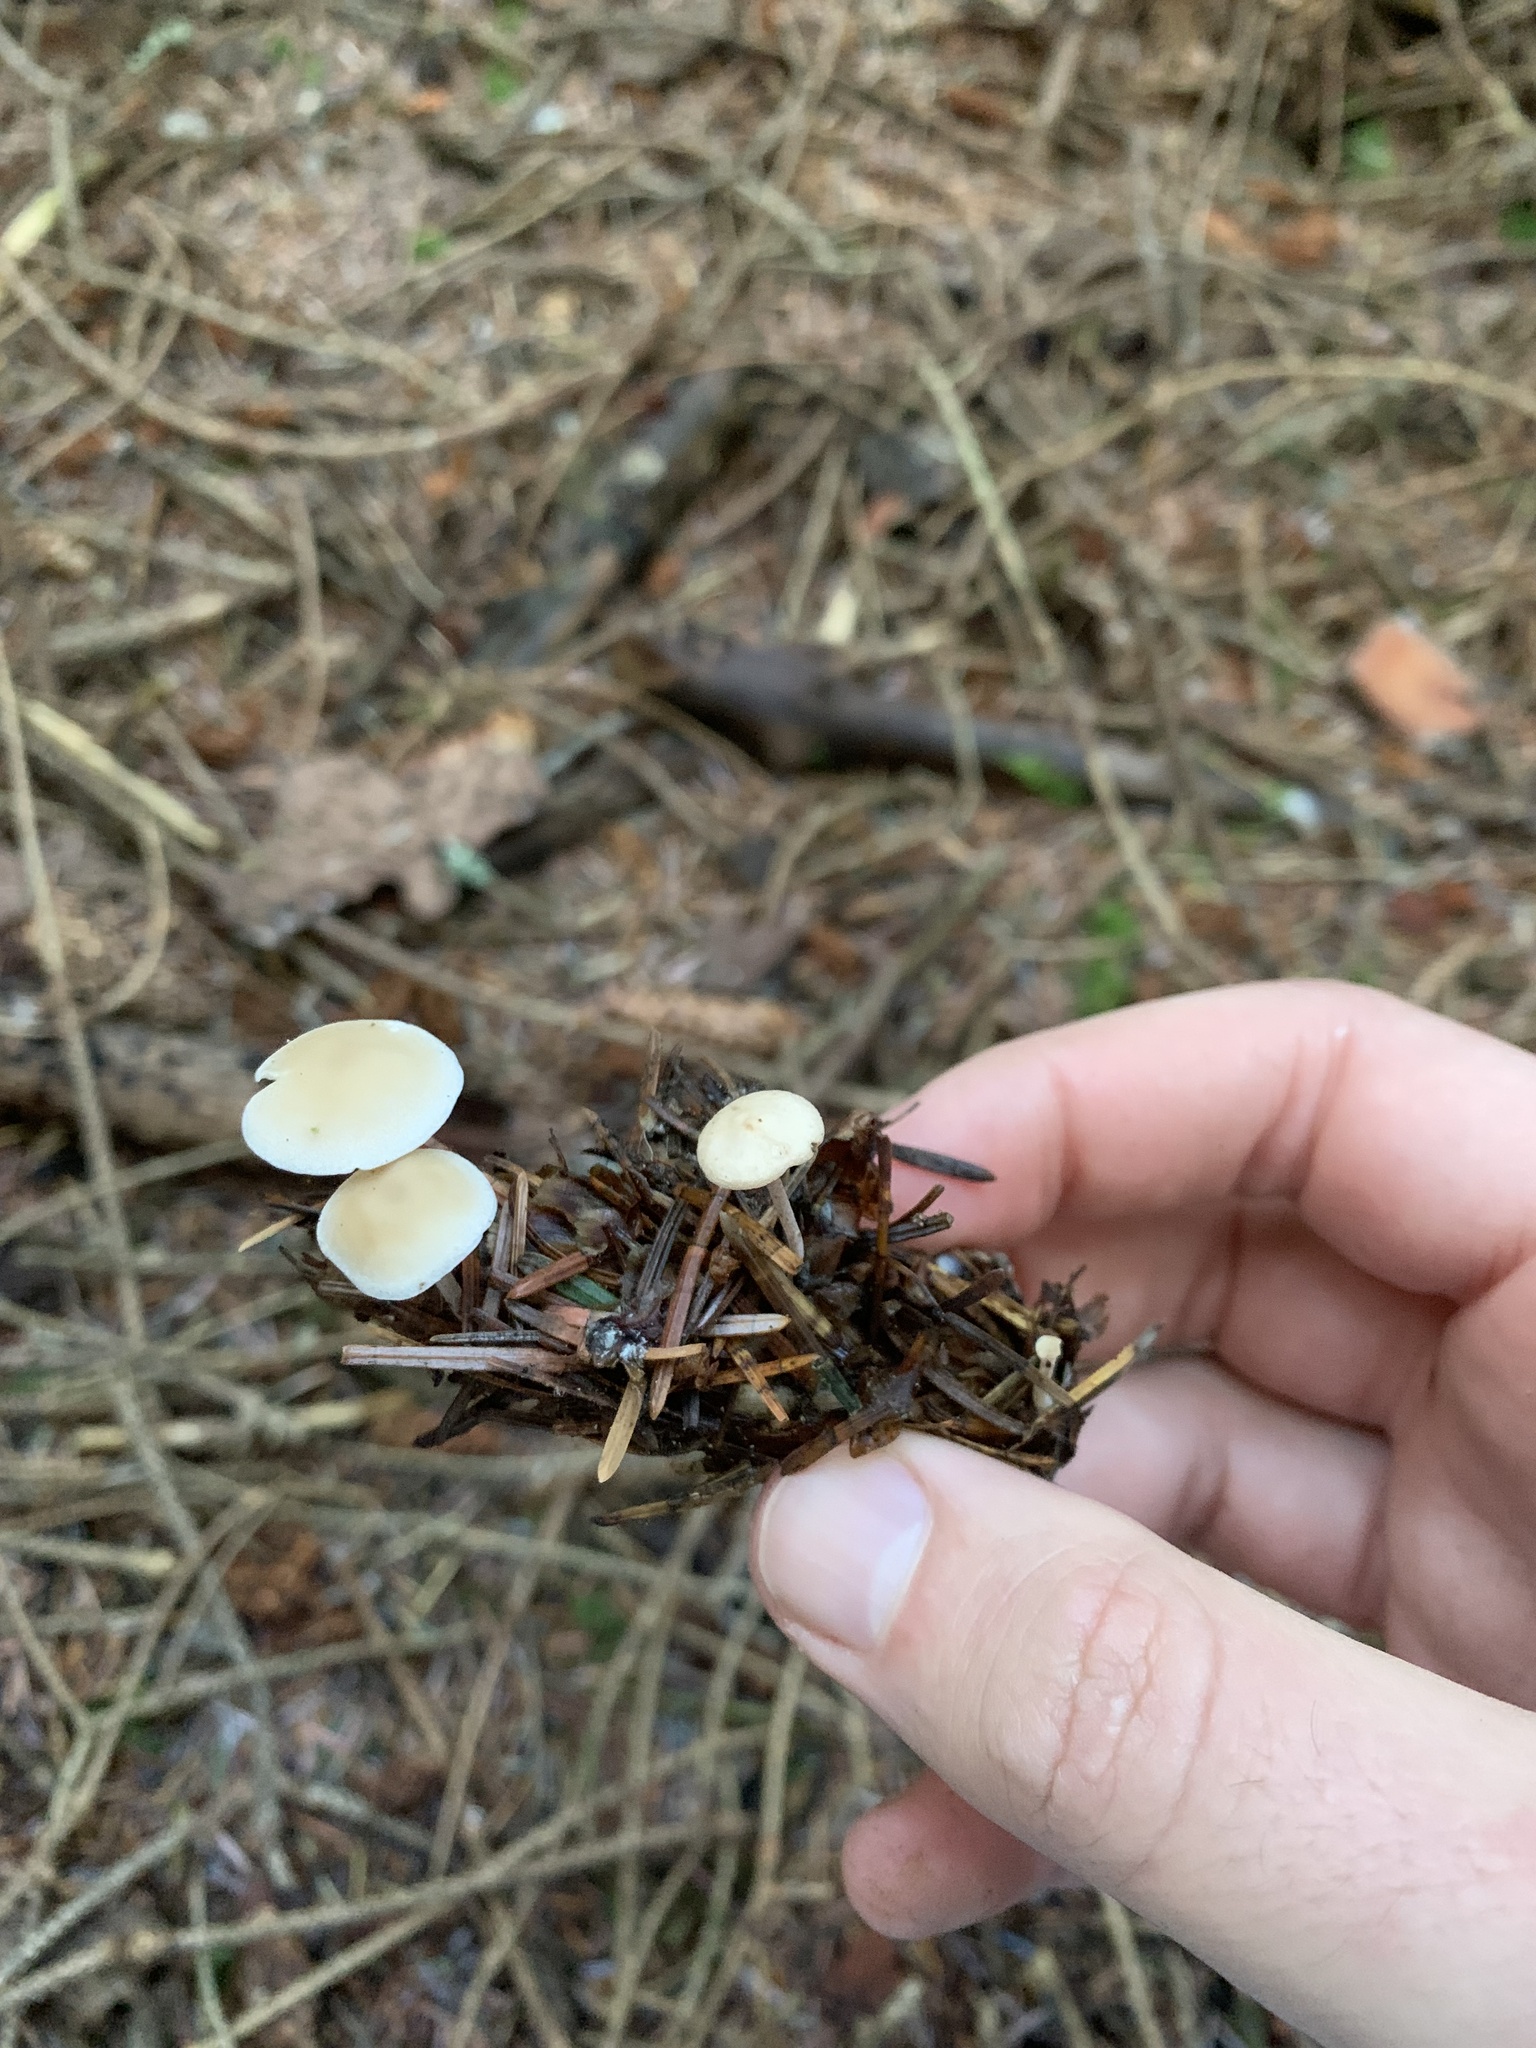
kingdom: Fungi
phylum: Basidiomycota
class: Agaricomycetes
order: Agaricales
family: Marasmiaceae
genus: Baeospora
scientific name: Baeospora myosura
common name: Conifercone cap
